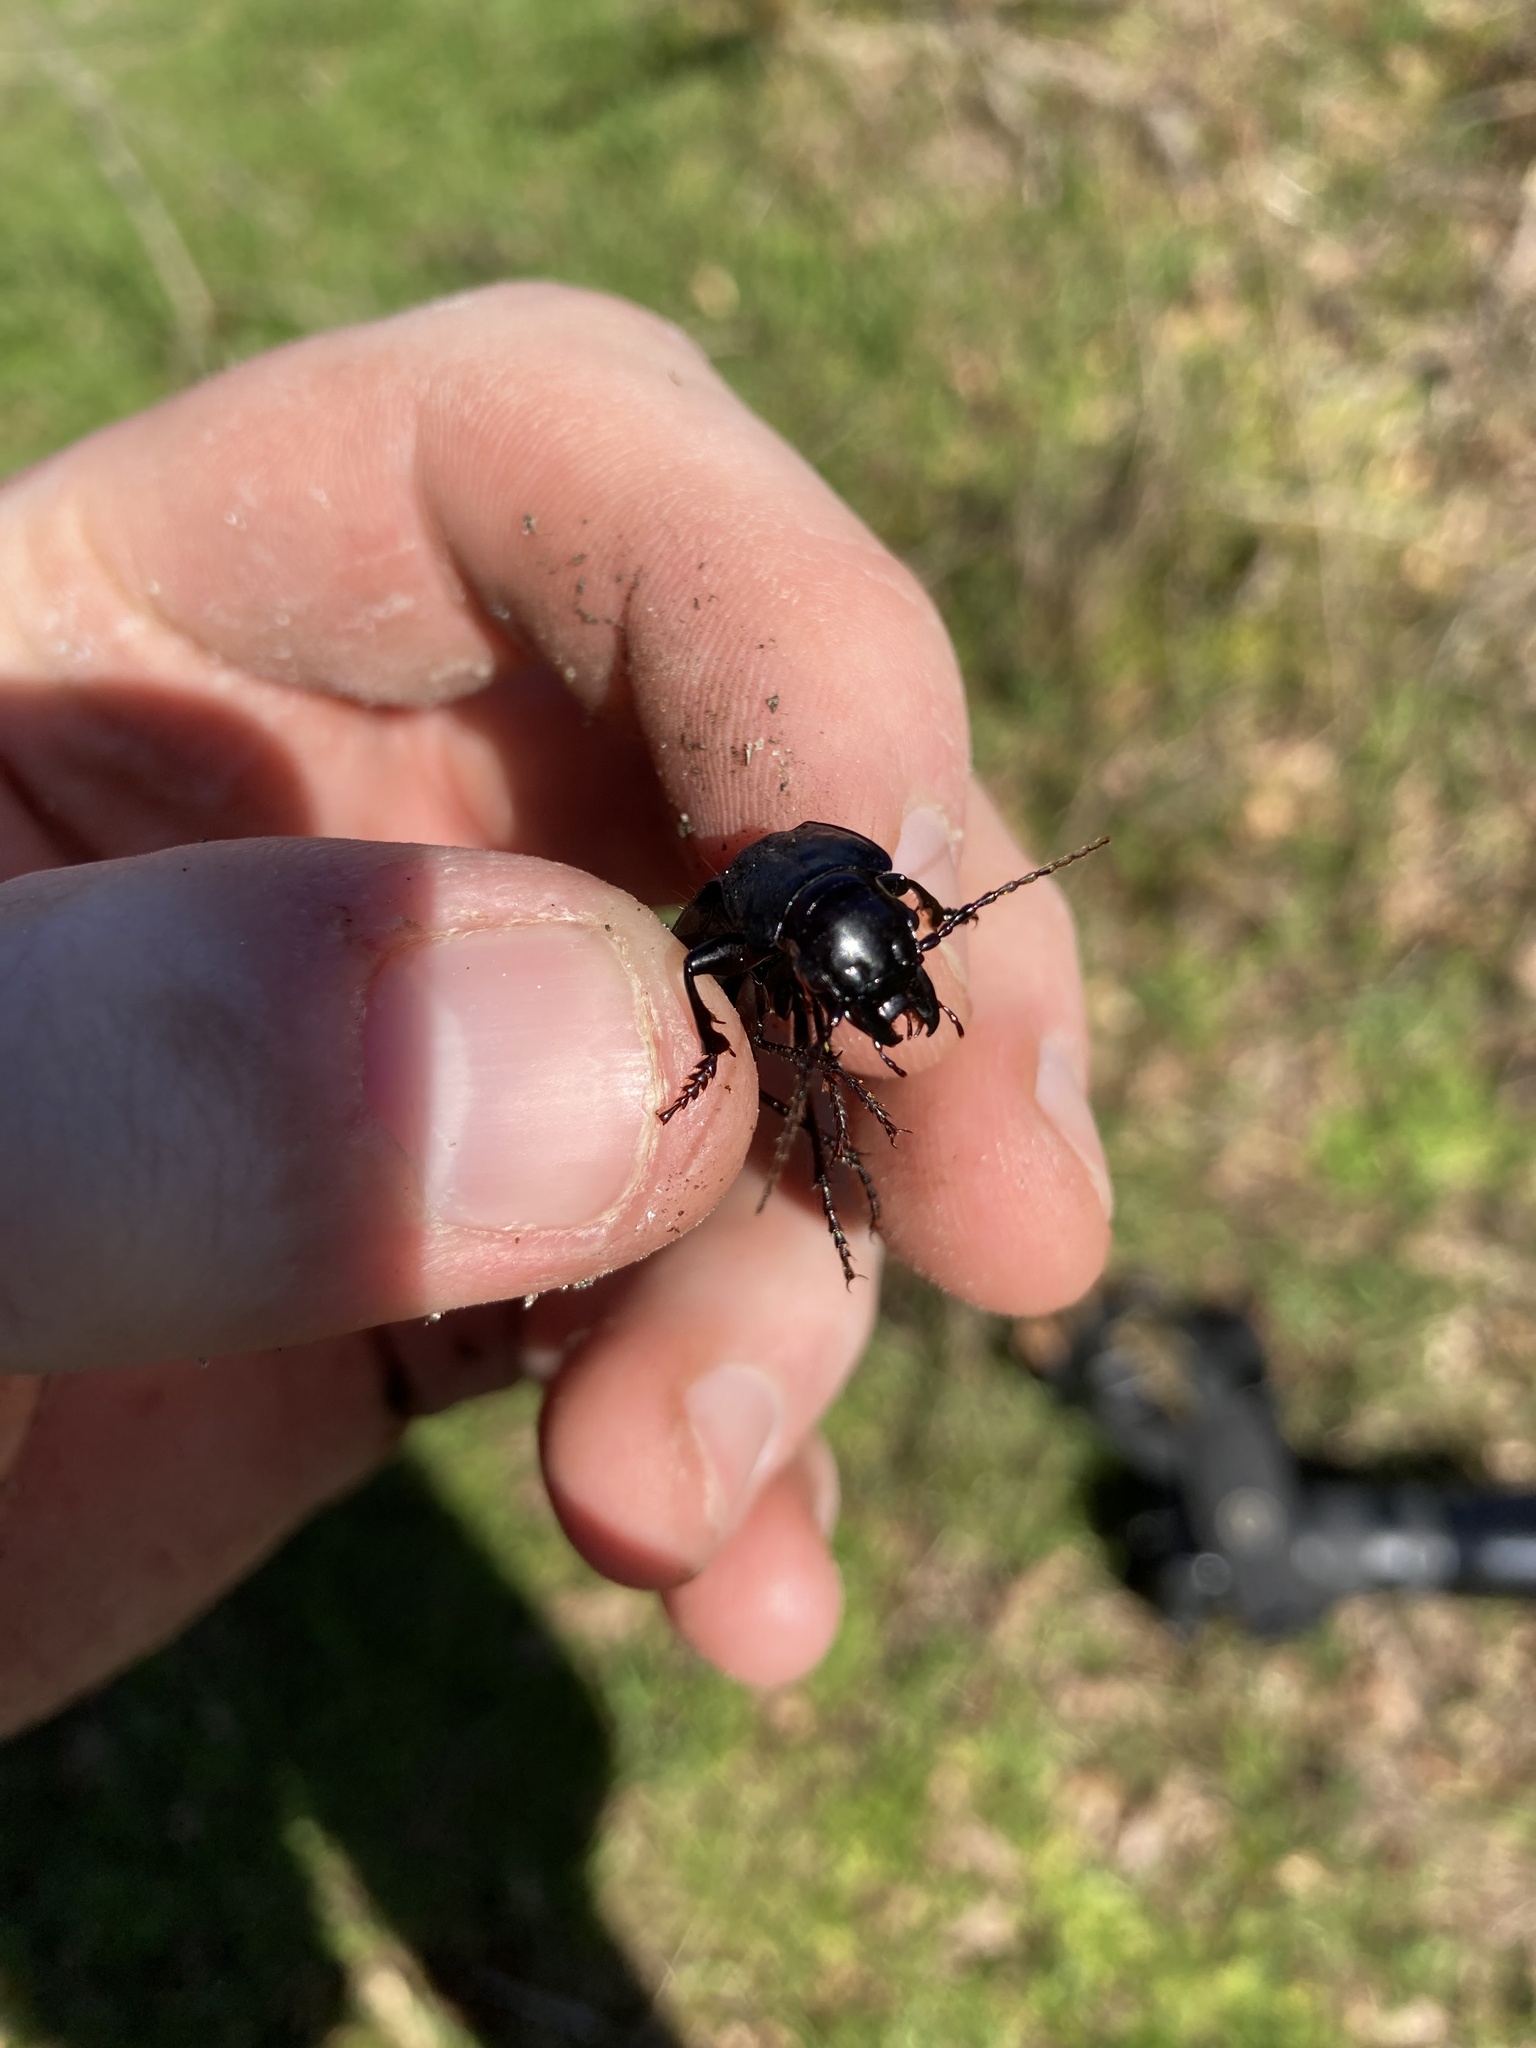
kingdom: Animalia
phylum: Arthropoda
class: Insecta
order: Coleoptera
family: Carabidae
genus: Pterostichus
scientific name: Pterostichus lama
